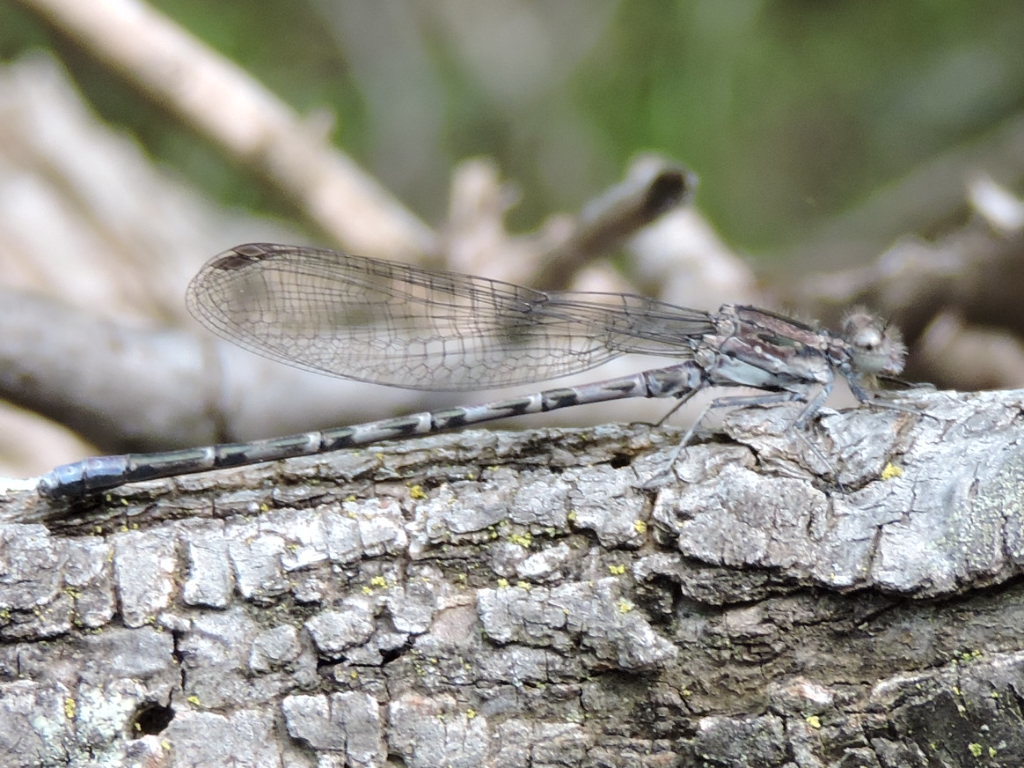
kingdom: Animalia
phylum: Arthropoda
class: Insecta
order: Odonata
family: Coenagrionidae
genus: Argia
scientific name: Argia immunda
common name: Kiowa dancer
